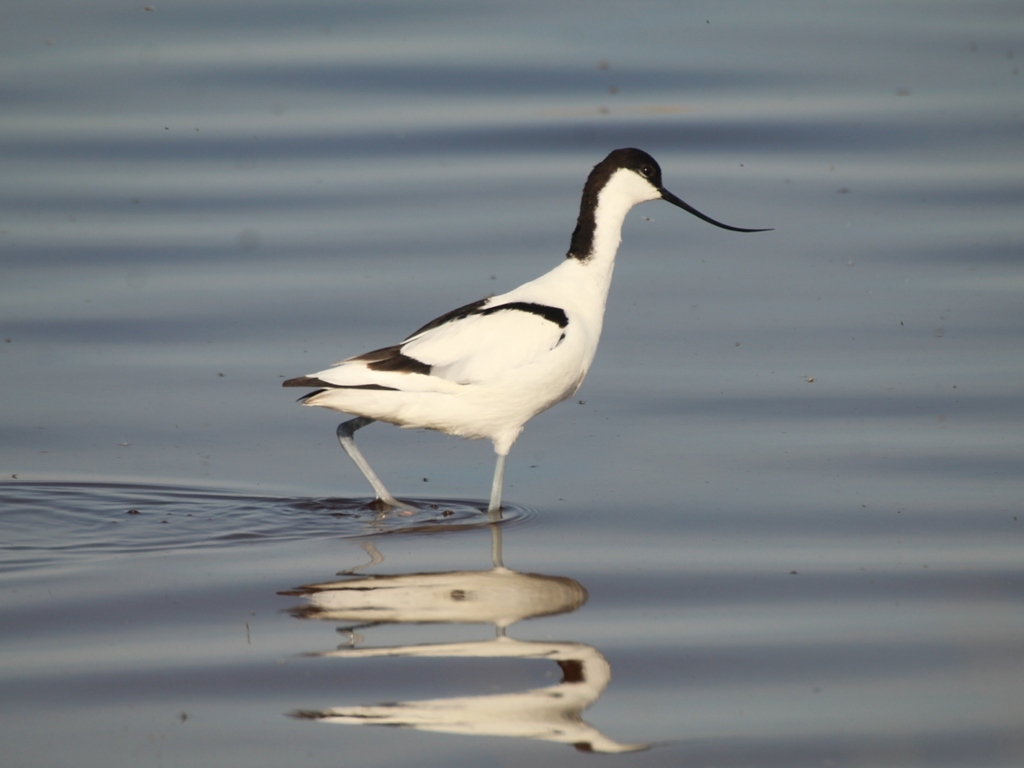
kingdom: Animalia
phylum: Chordata
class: Aves
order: Charadriiformes
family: Recurvirostridae
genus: Recurvirostra
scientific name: Recurvirostra avosetta
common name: Pied avocet
